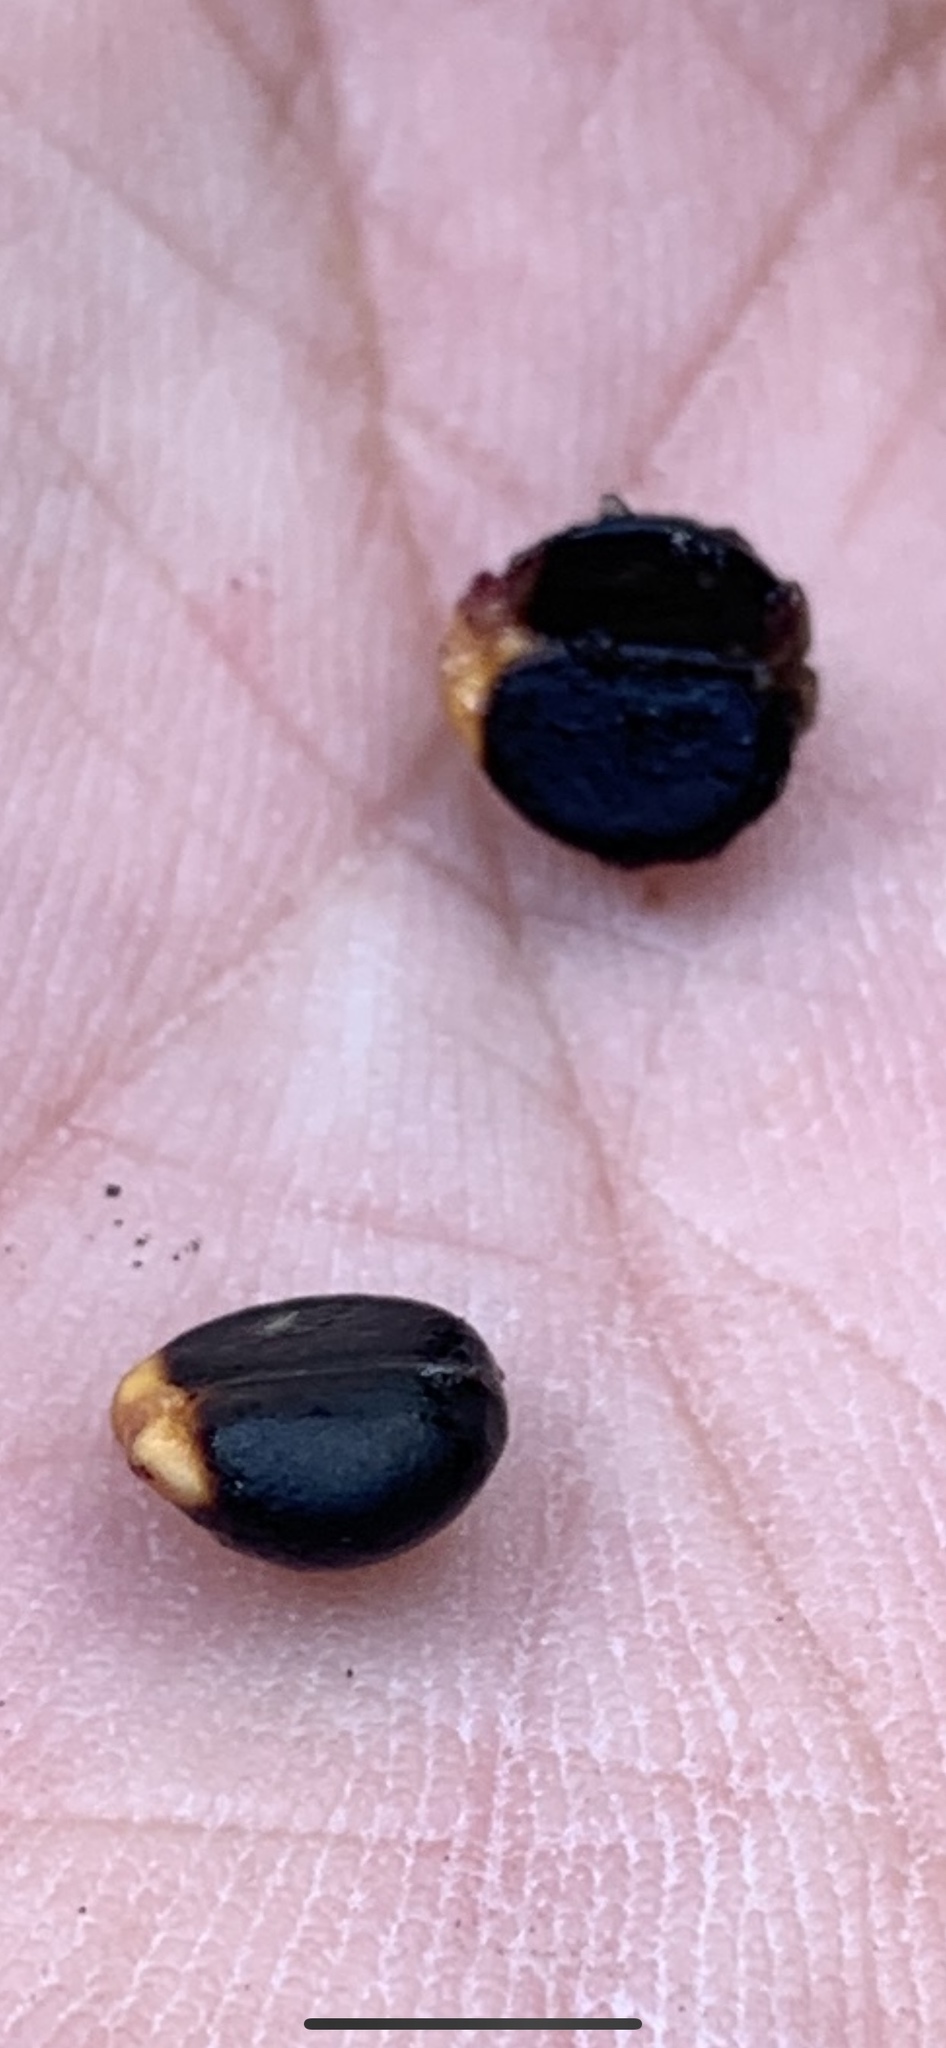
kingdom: Plantae
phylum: Tracheophyta
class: Magnoliopsida
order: Rosales
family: Rhamnaceae
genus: Frangula
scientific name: Frangula californica
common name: California buckthorn
